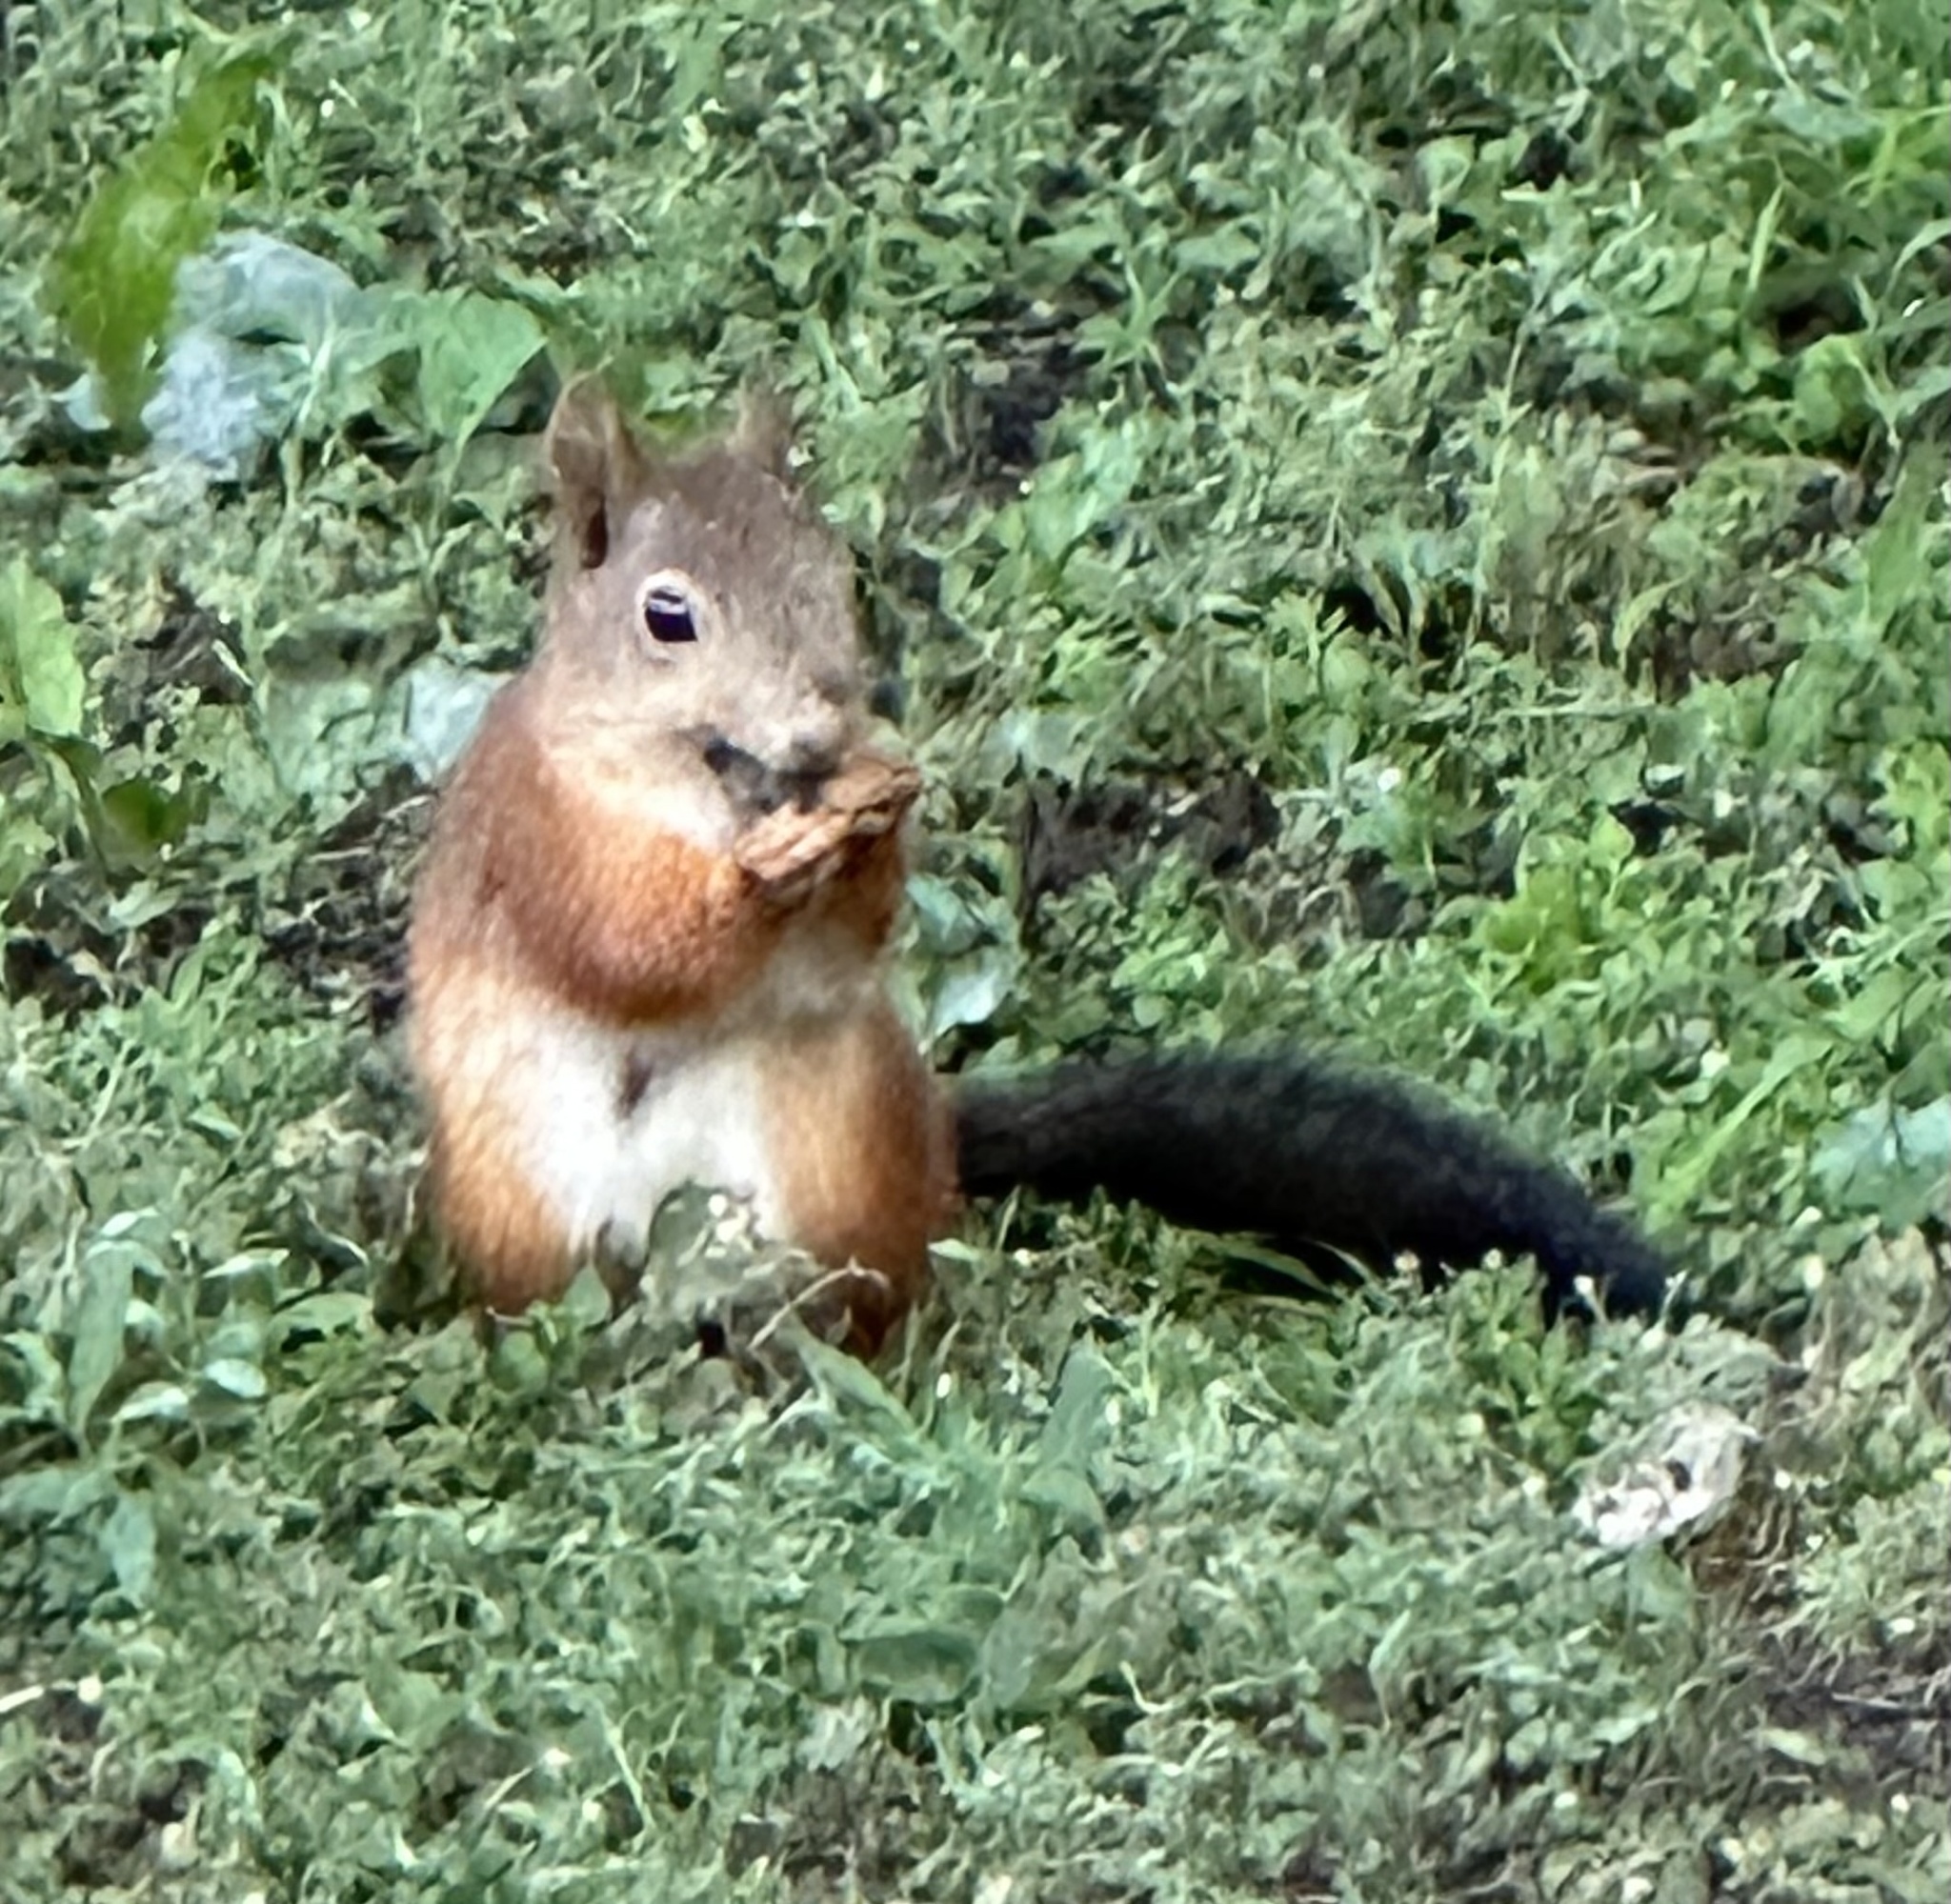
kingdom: Animalia
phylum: Chordata
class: Mammalia
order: Rodentia
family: Sciuridae
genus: Sciurus
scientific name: Sciurus vulgaris
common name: Eurasian red squirrel
